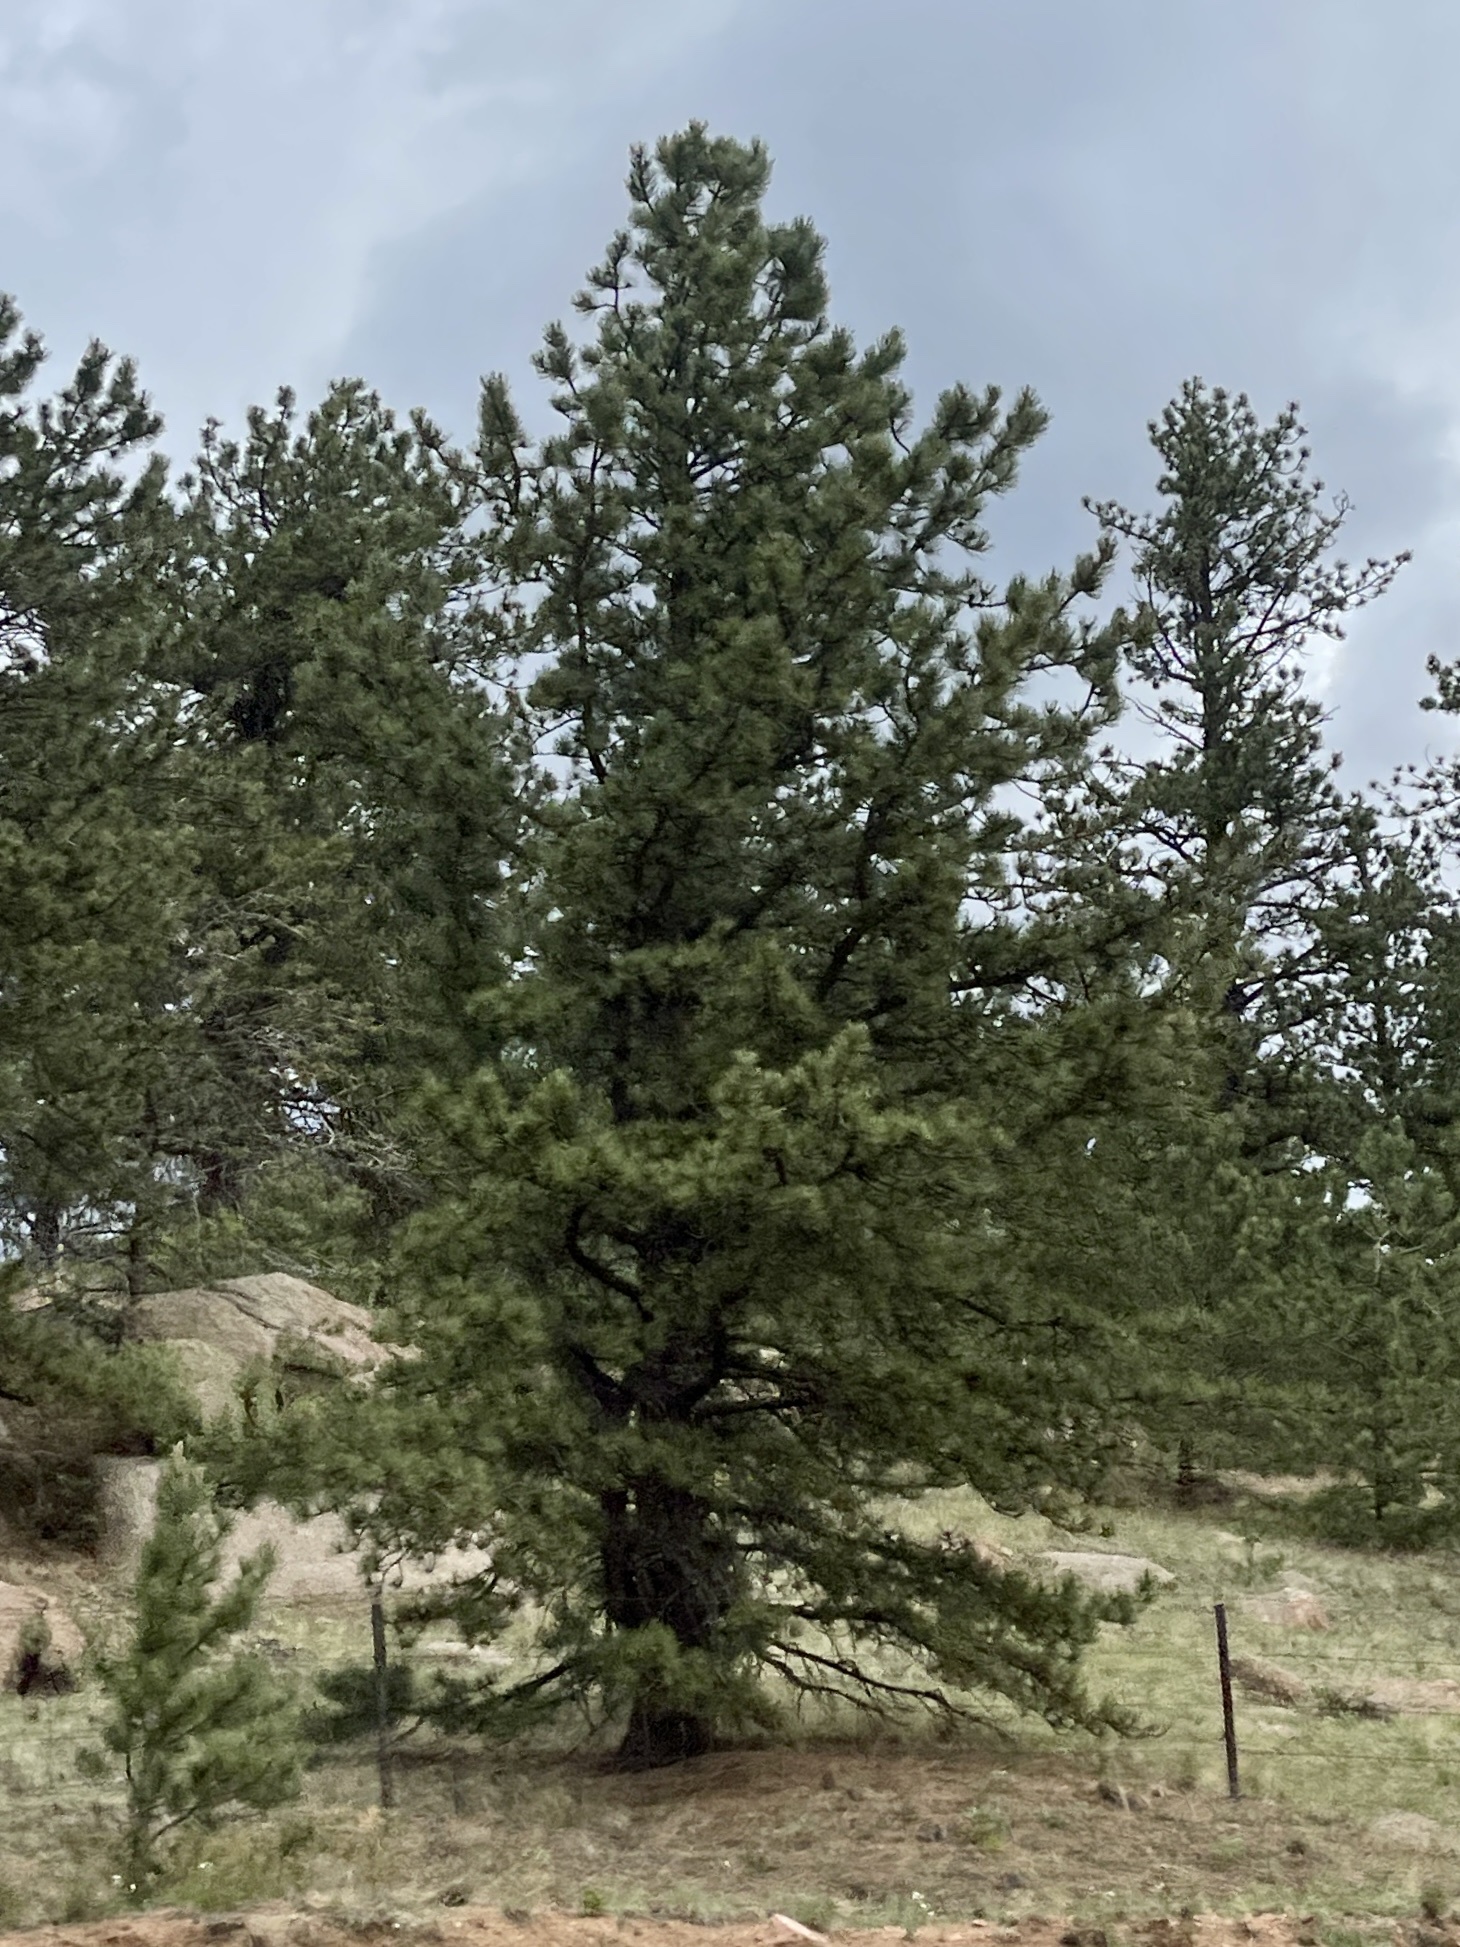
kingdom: Plantae
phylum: Tracheophyta
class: Pinopsida
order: Pinales
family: Pinaceae
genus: Pinus
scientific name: Pinus ponderosa
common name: Western yellow-pine
